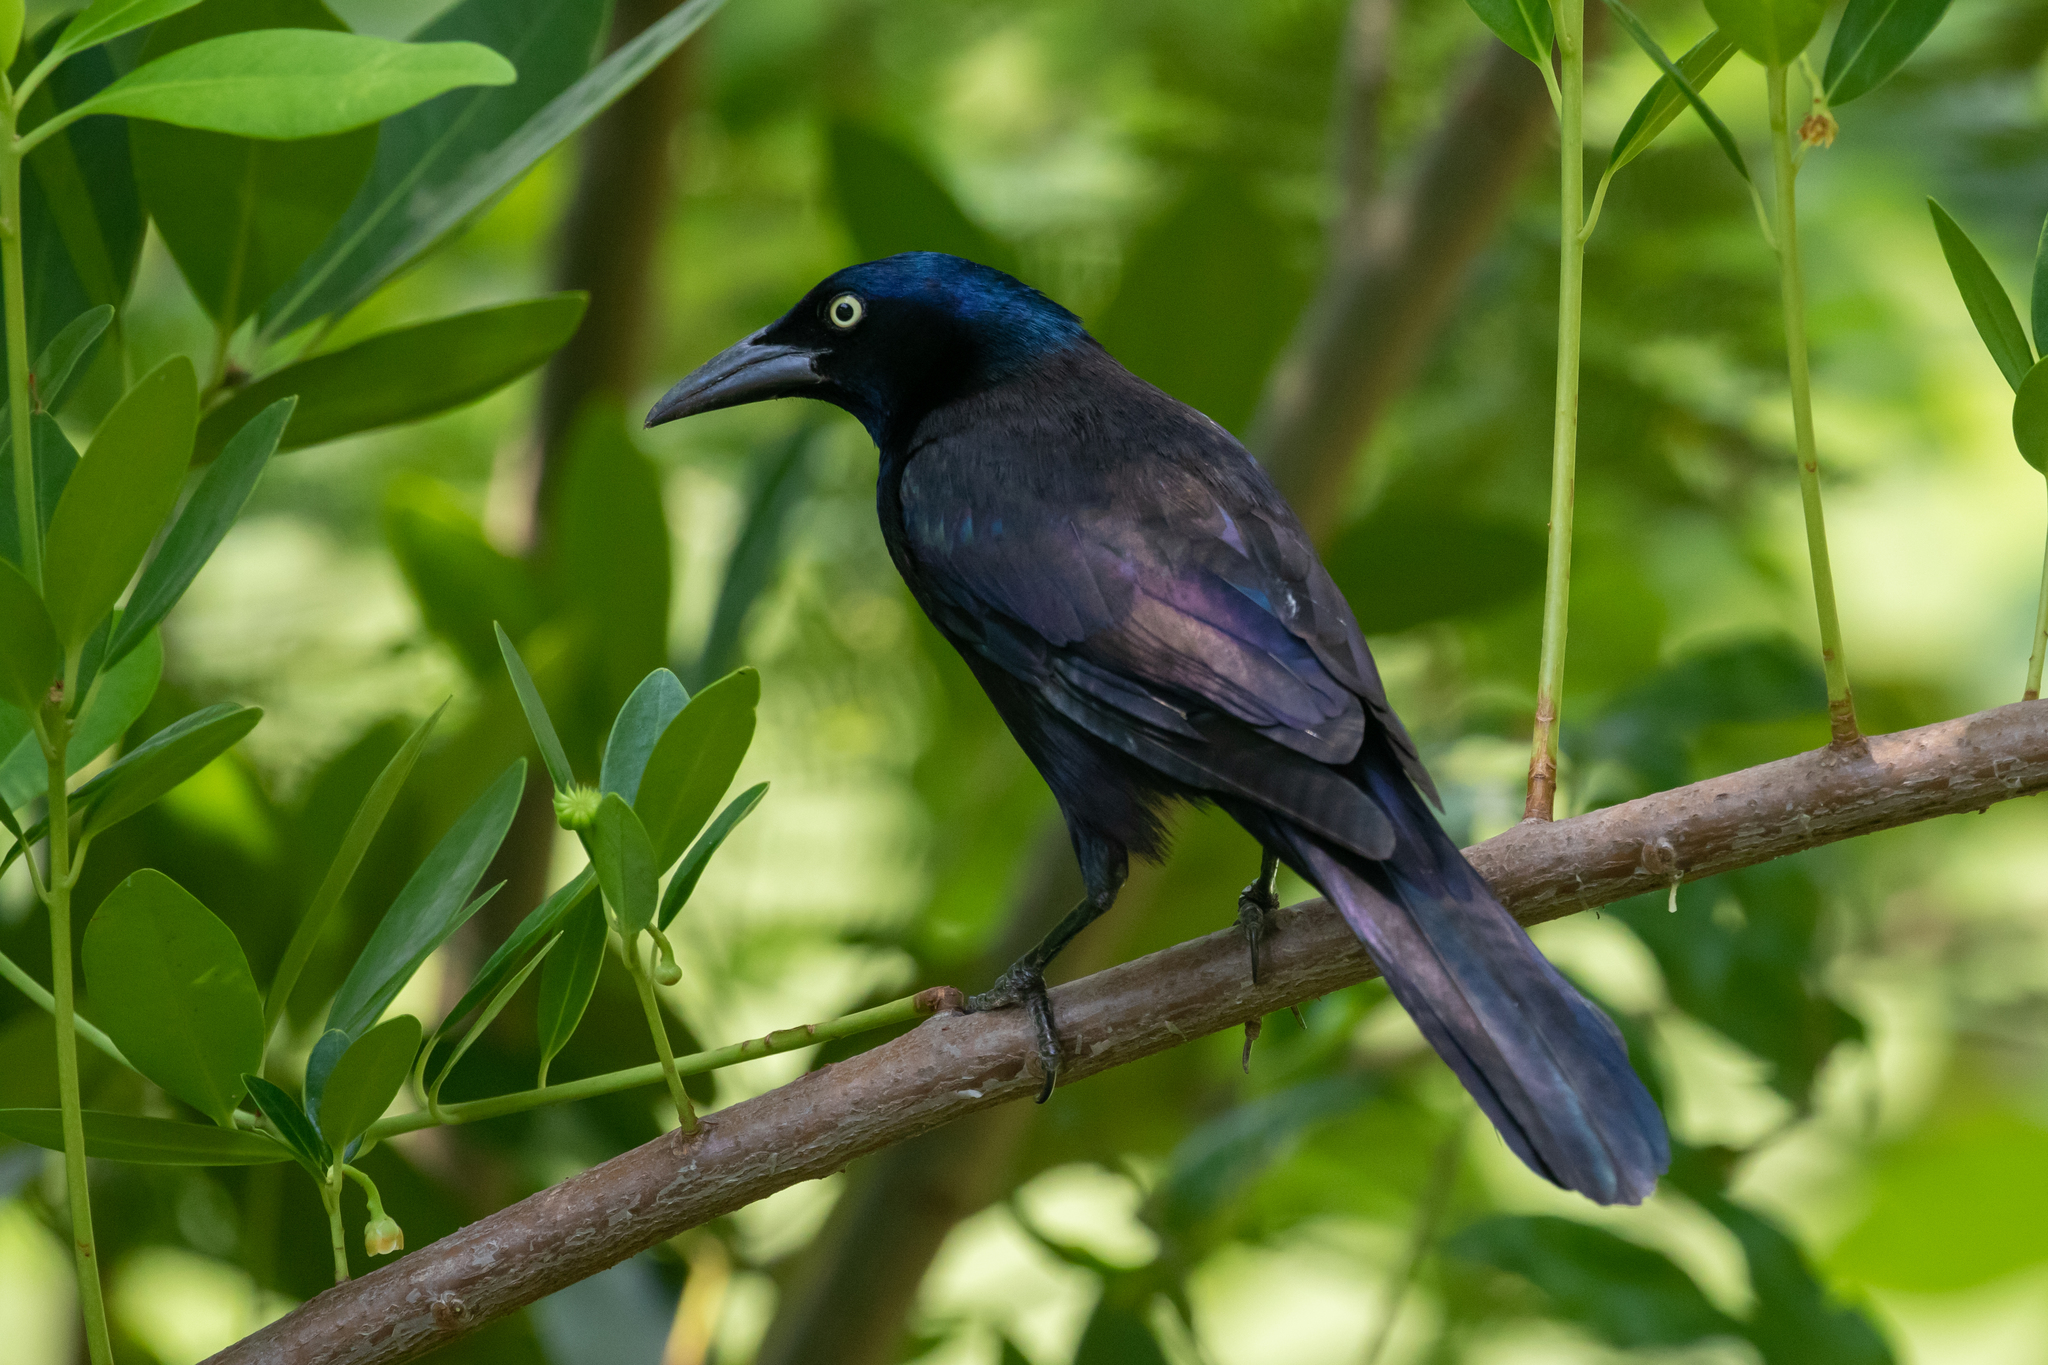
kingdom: Animalia
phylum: Chordata
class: Aves
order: Passeriformes
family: Icteridae
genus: Quiscalus
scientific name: Quiscalus quiscula
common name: Common grackle
